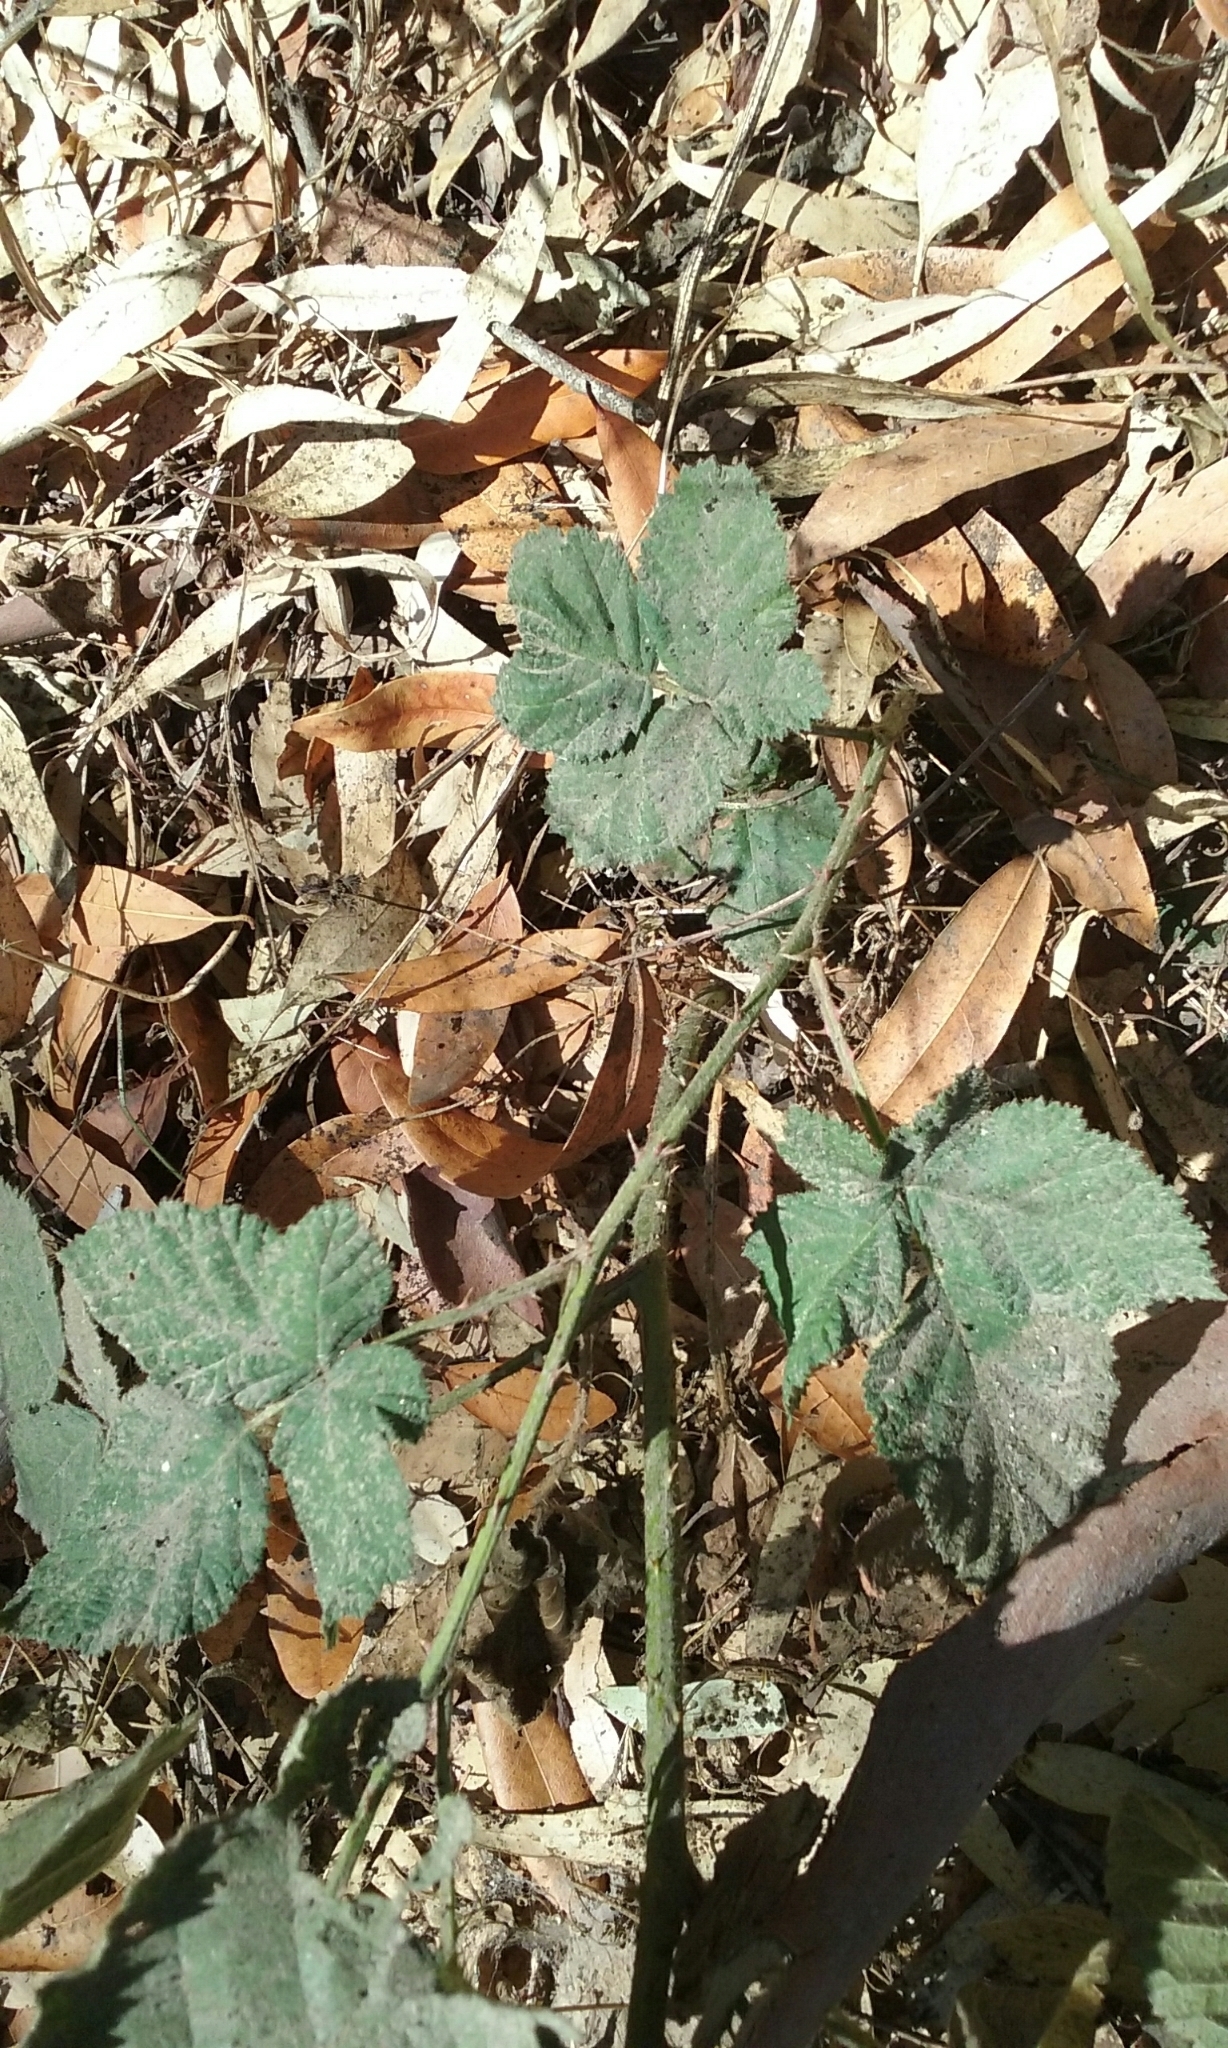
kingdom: Plantae
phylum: Tracheophyta
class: Magnoliopsida
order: Rosales
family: Rosaceae
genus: Rubus
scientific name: Rubus armeniacus
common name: Himalayan blackberry
